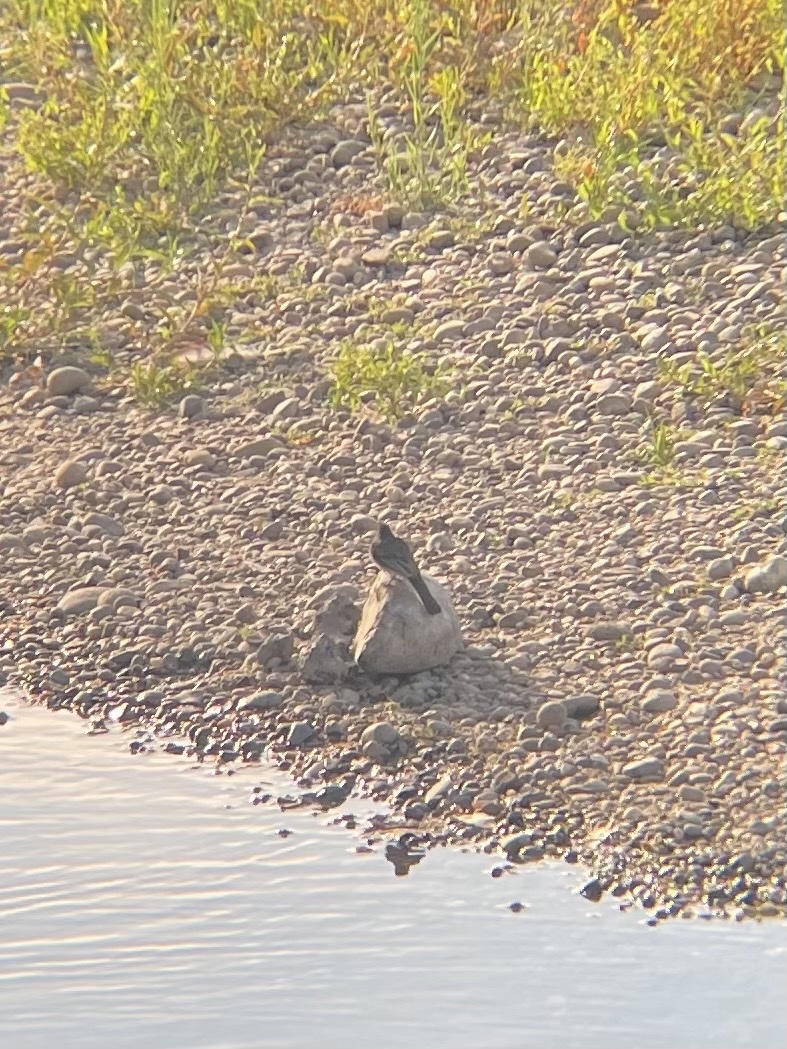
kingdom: Animalia
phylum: Chordata
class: Aves
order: Passeriformes
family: Tyrannidae
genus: Sayornis
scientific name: Sayornis nigricans
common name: Black phoebe
